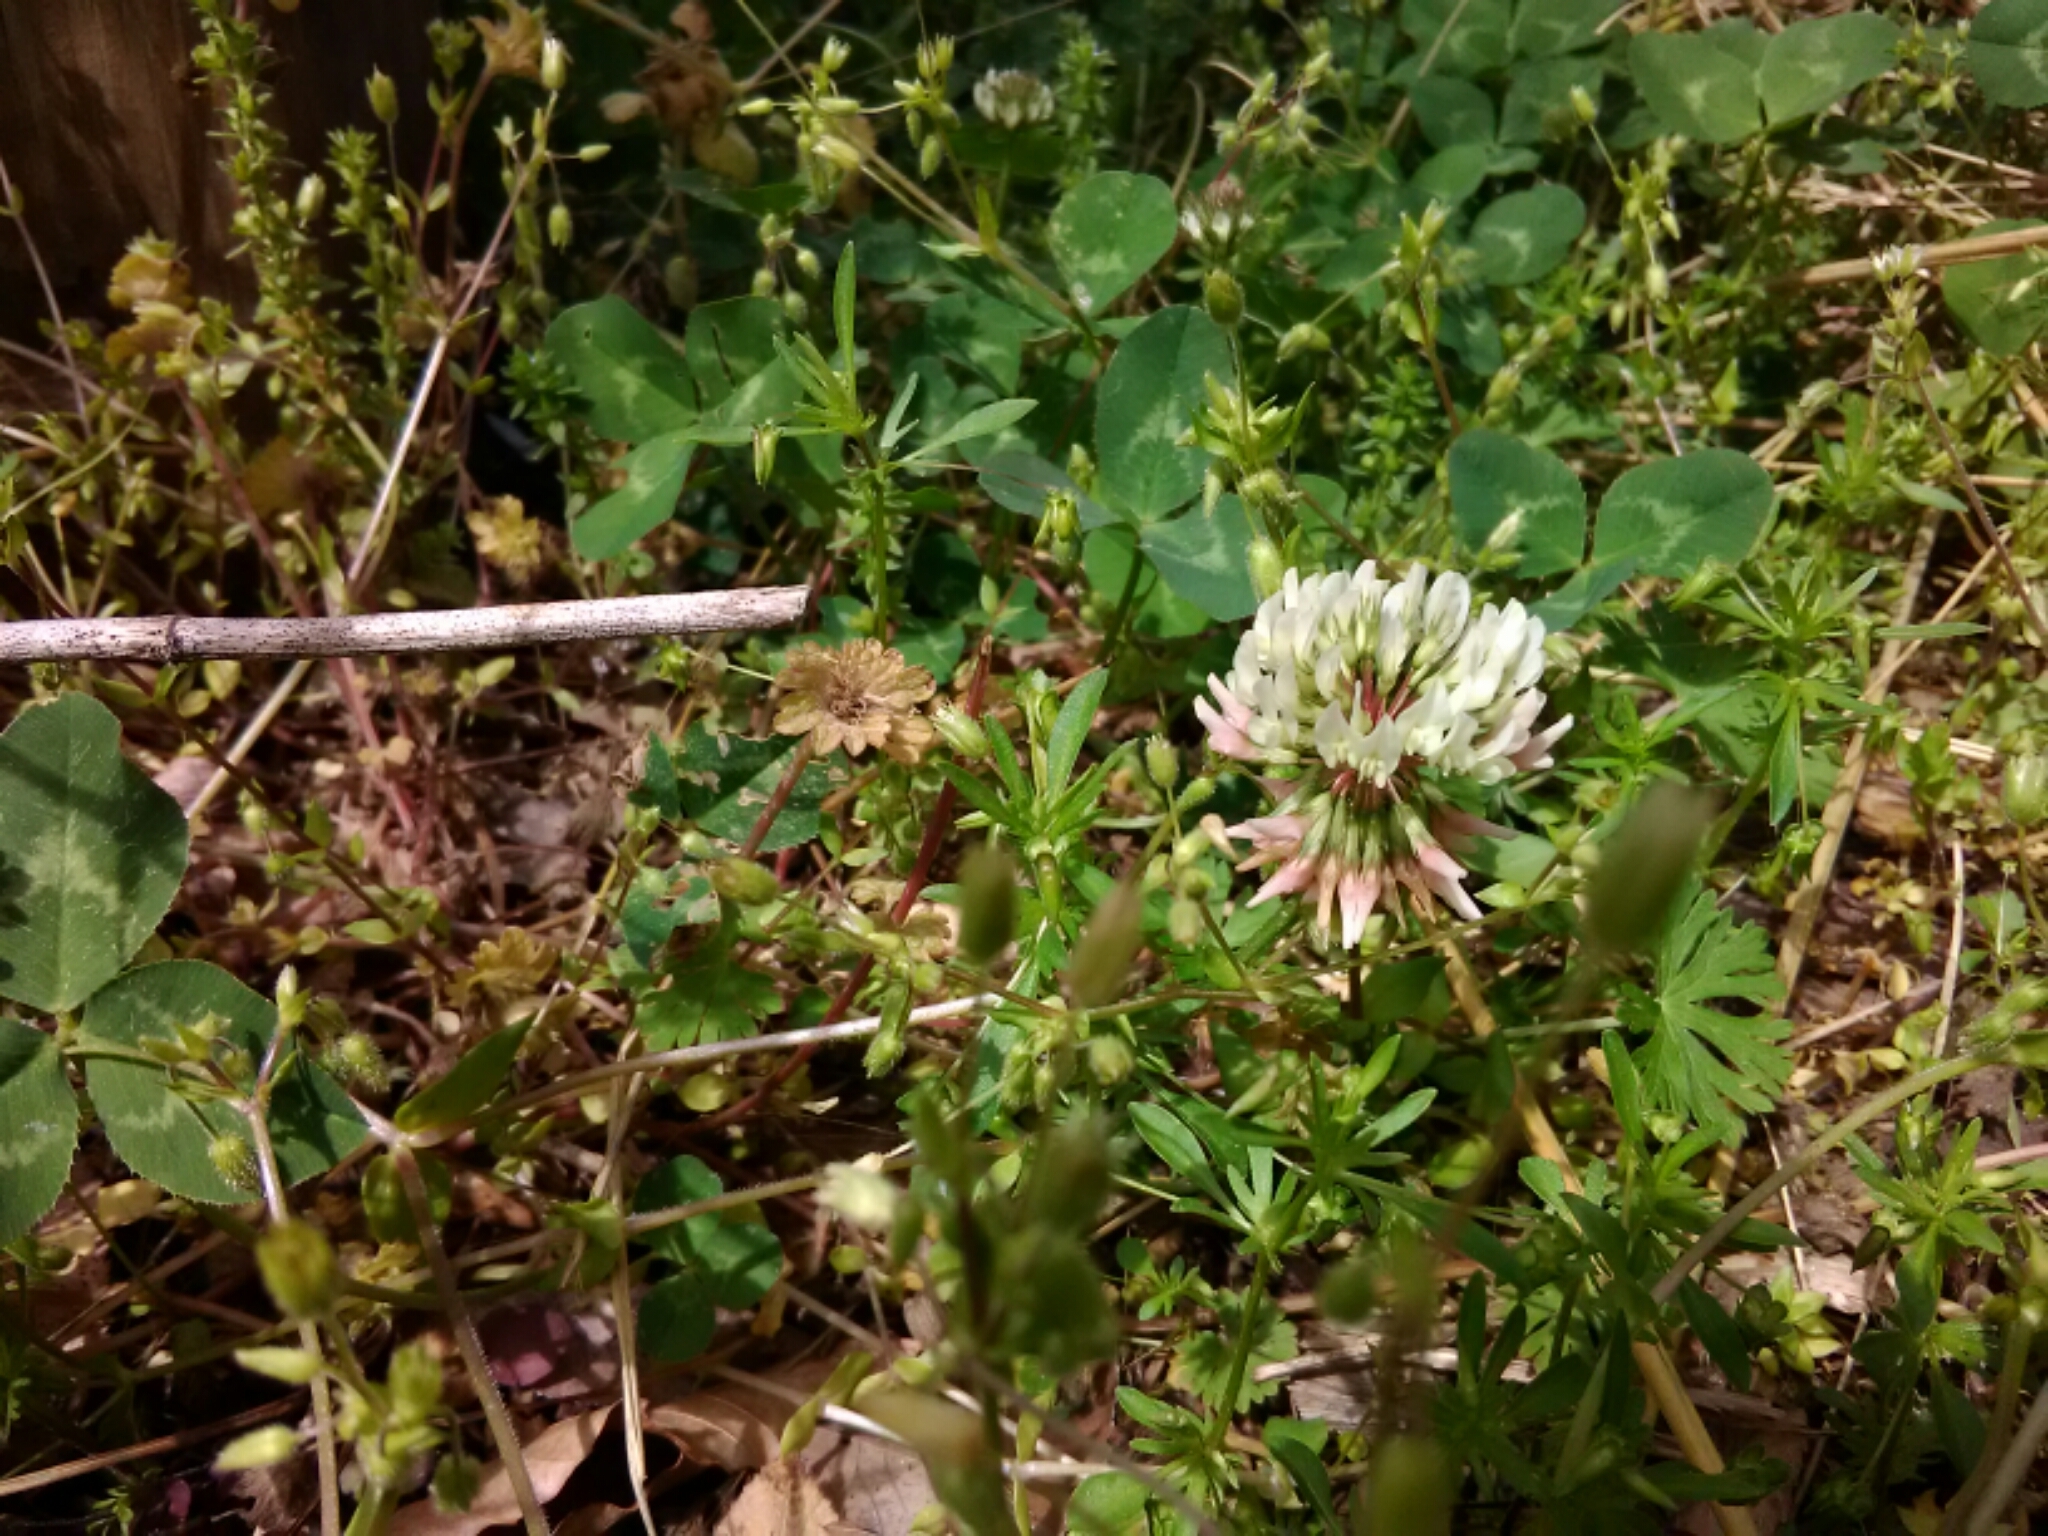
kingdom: Plantae
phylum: Tracheophyta
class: Magnoliopsida
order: Fabales
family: Fabaceae
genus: Trifolium
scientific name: Trifolium repens
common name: White clover
